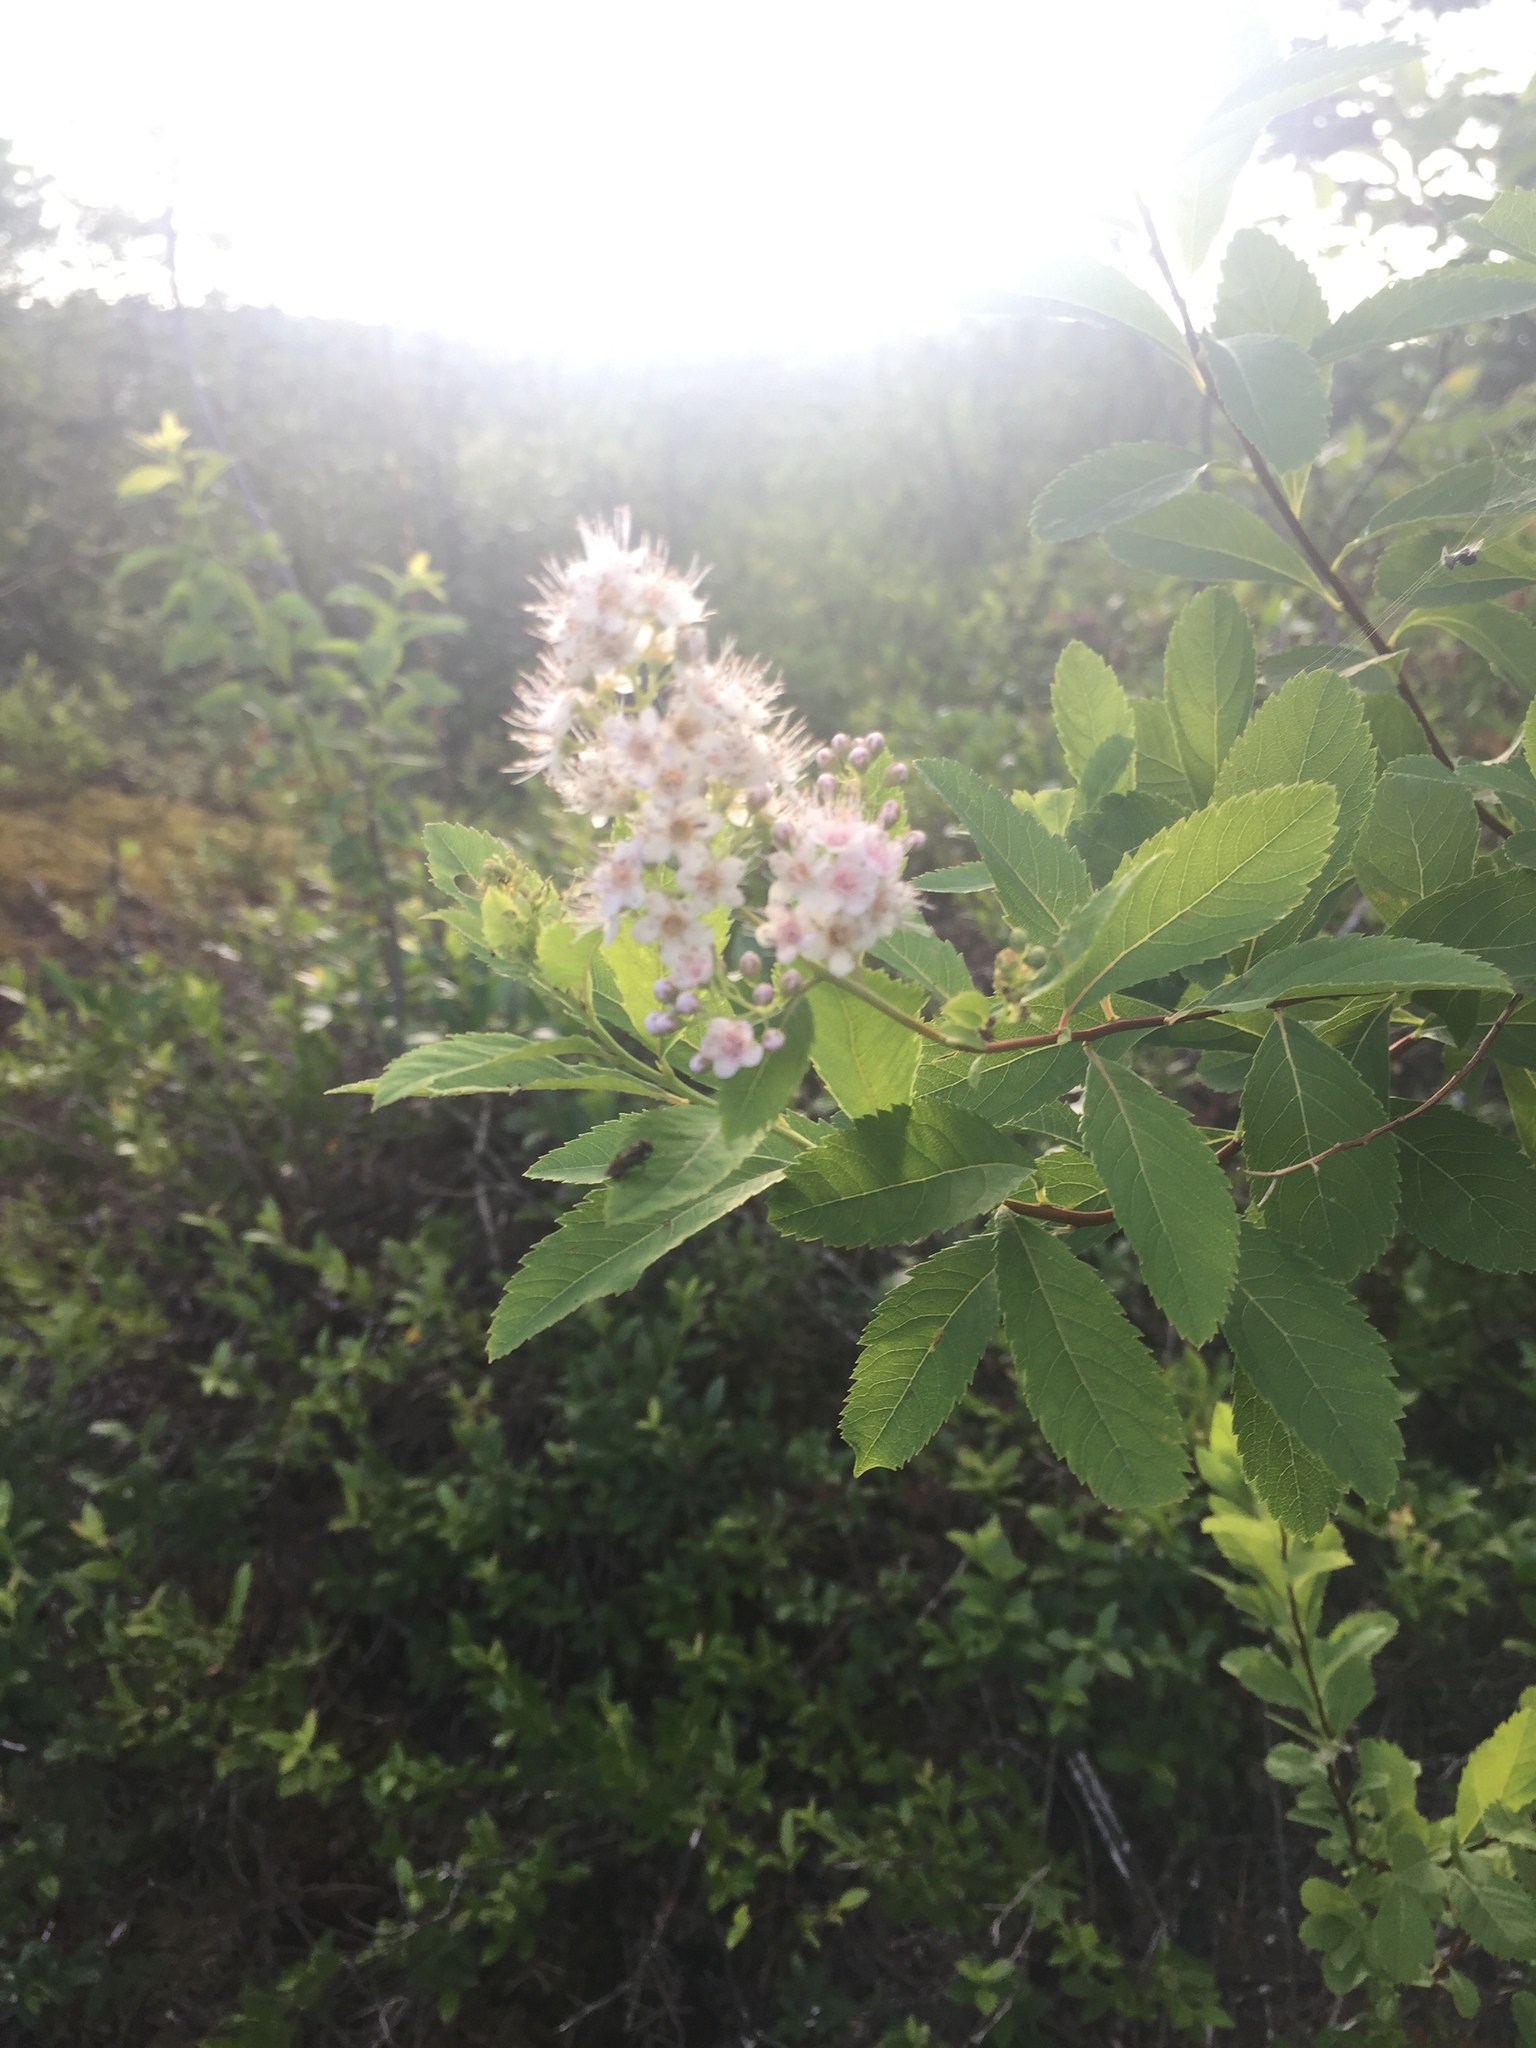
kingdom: Plantae
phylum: Tracheophyta
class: Magnoliopsida
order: Rosales
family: Rosaceae
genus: Spiraea
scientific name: Spiraea alba
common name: Pale bridewort
